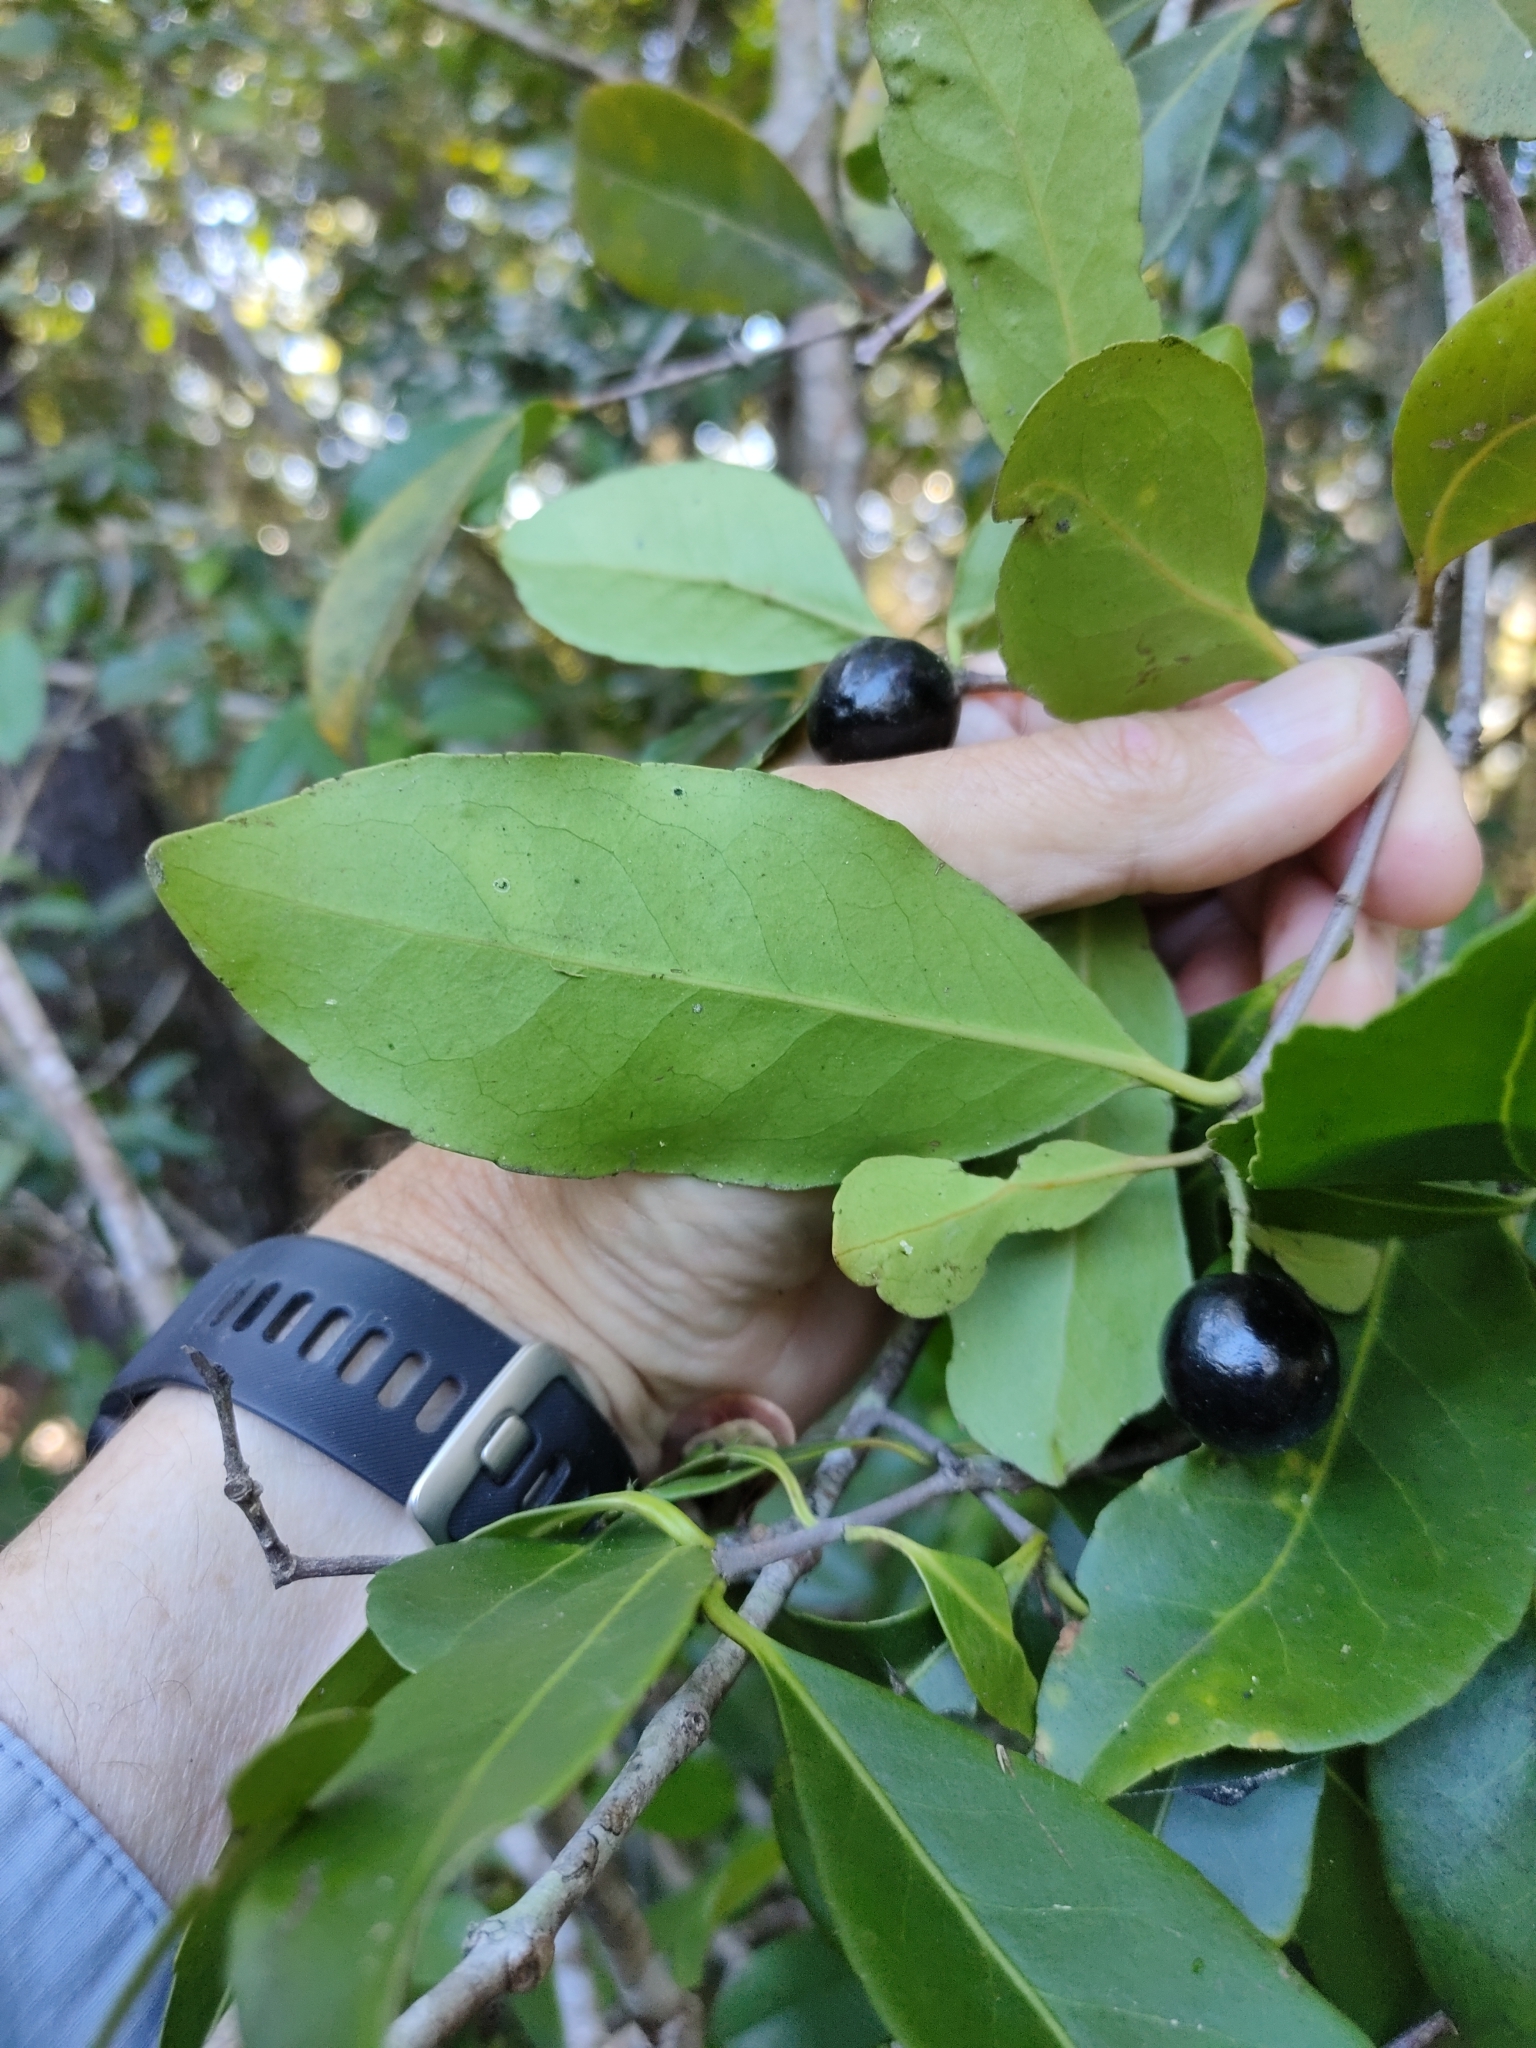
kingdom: Plantae
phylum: Tracheophyta
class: Magnoliopsida
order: Celastrales
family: Celastraceae
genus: Elaeodendron
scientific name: Elaeodendron melanocarpum
